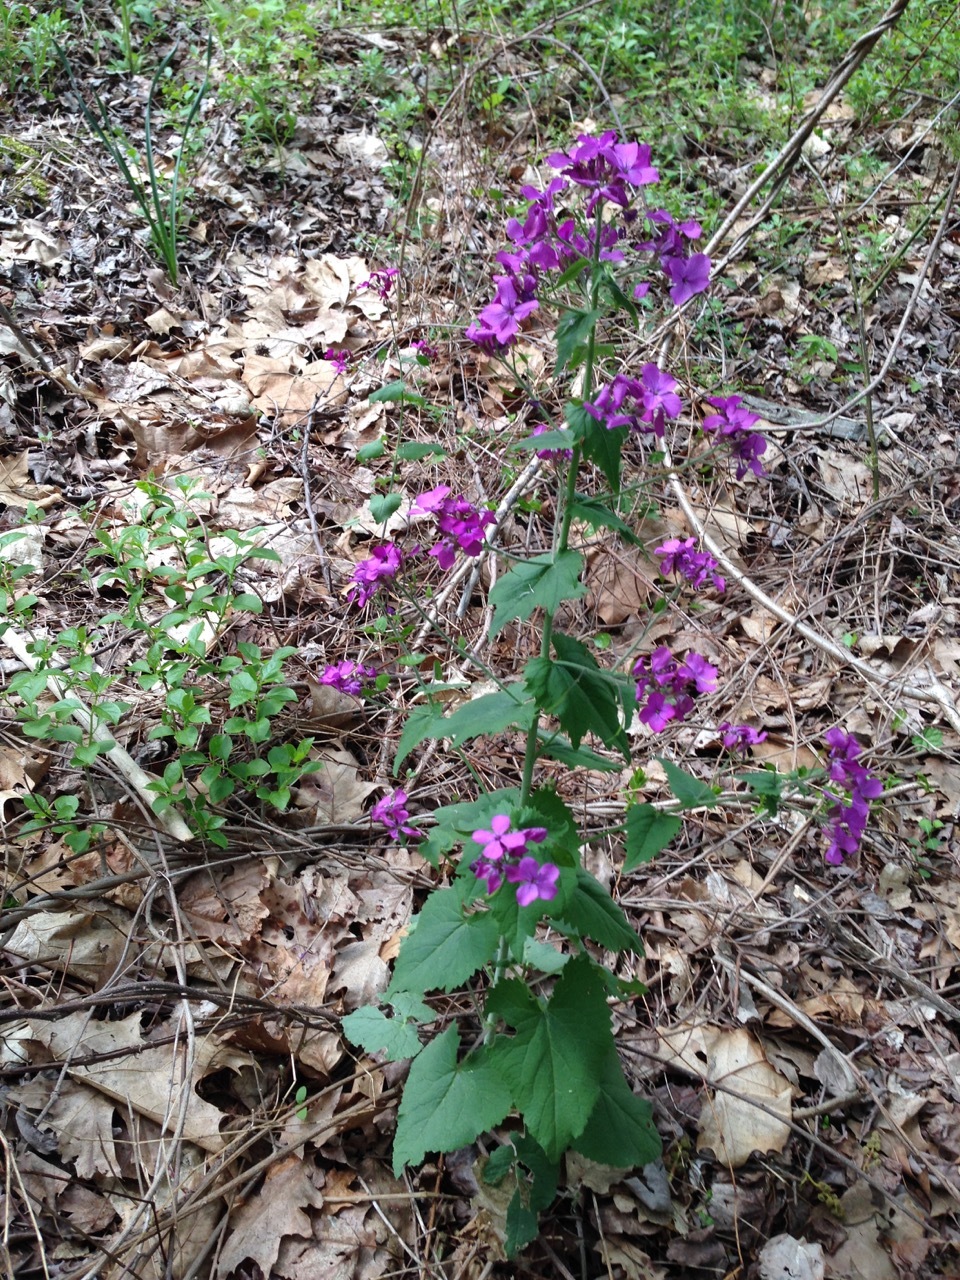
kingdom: Plantae
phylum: Tracheophyta
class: Magnoliopsida
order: Brassicales
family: Brassicaceae
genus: Lunaria
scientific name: Lunaria annua
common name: Honesty
